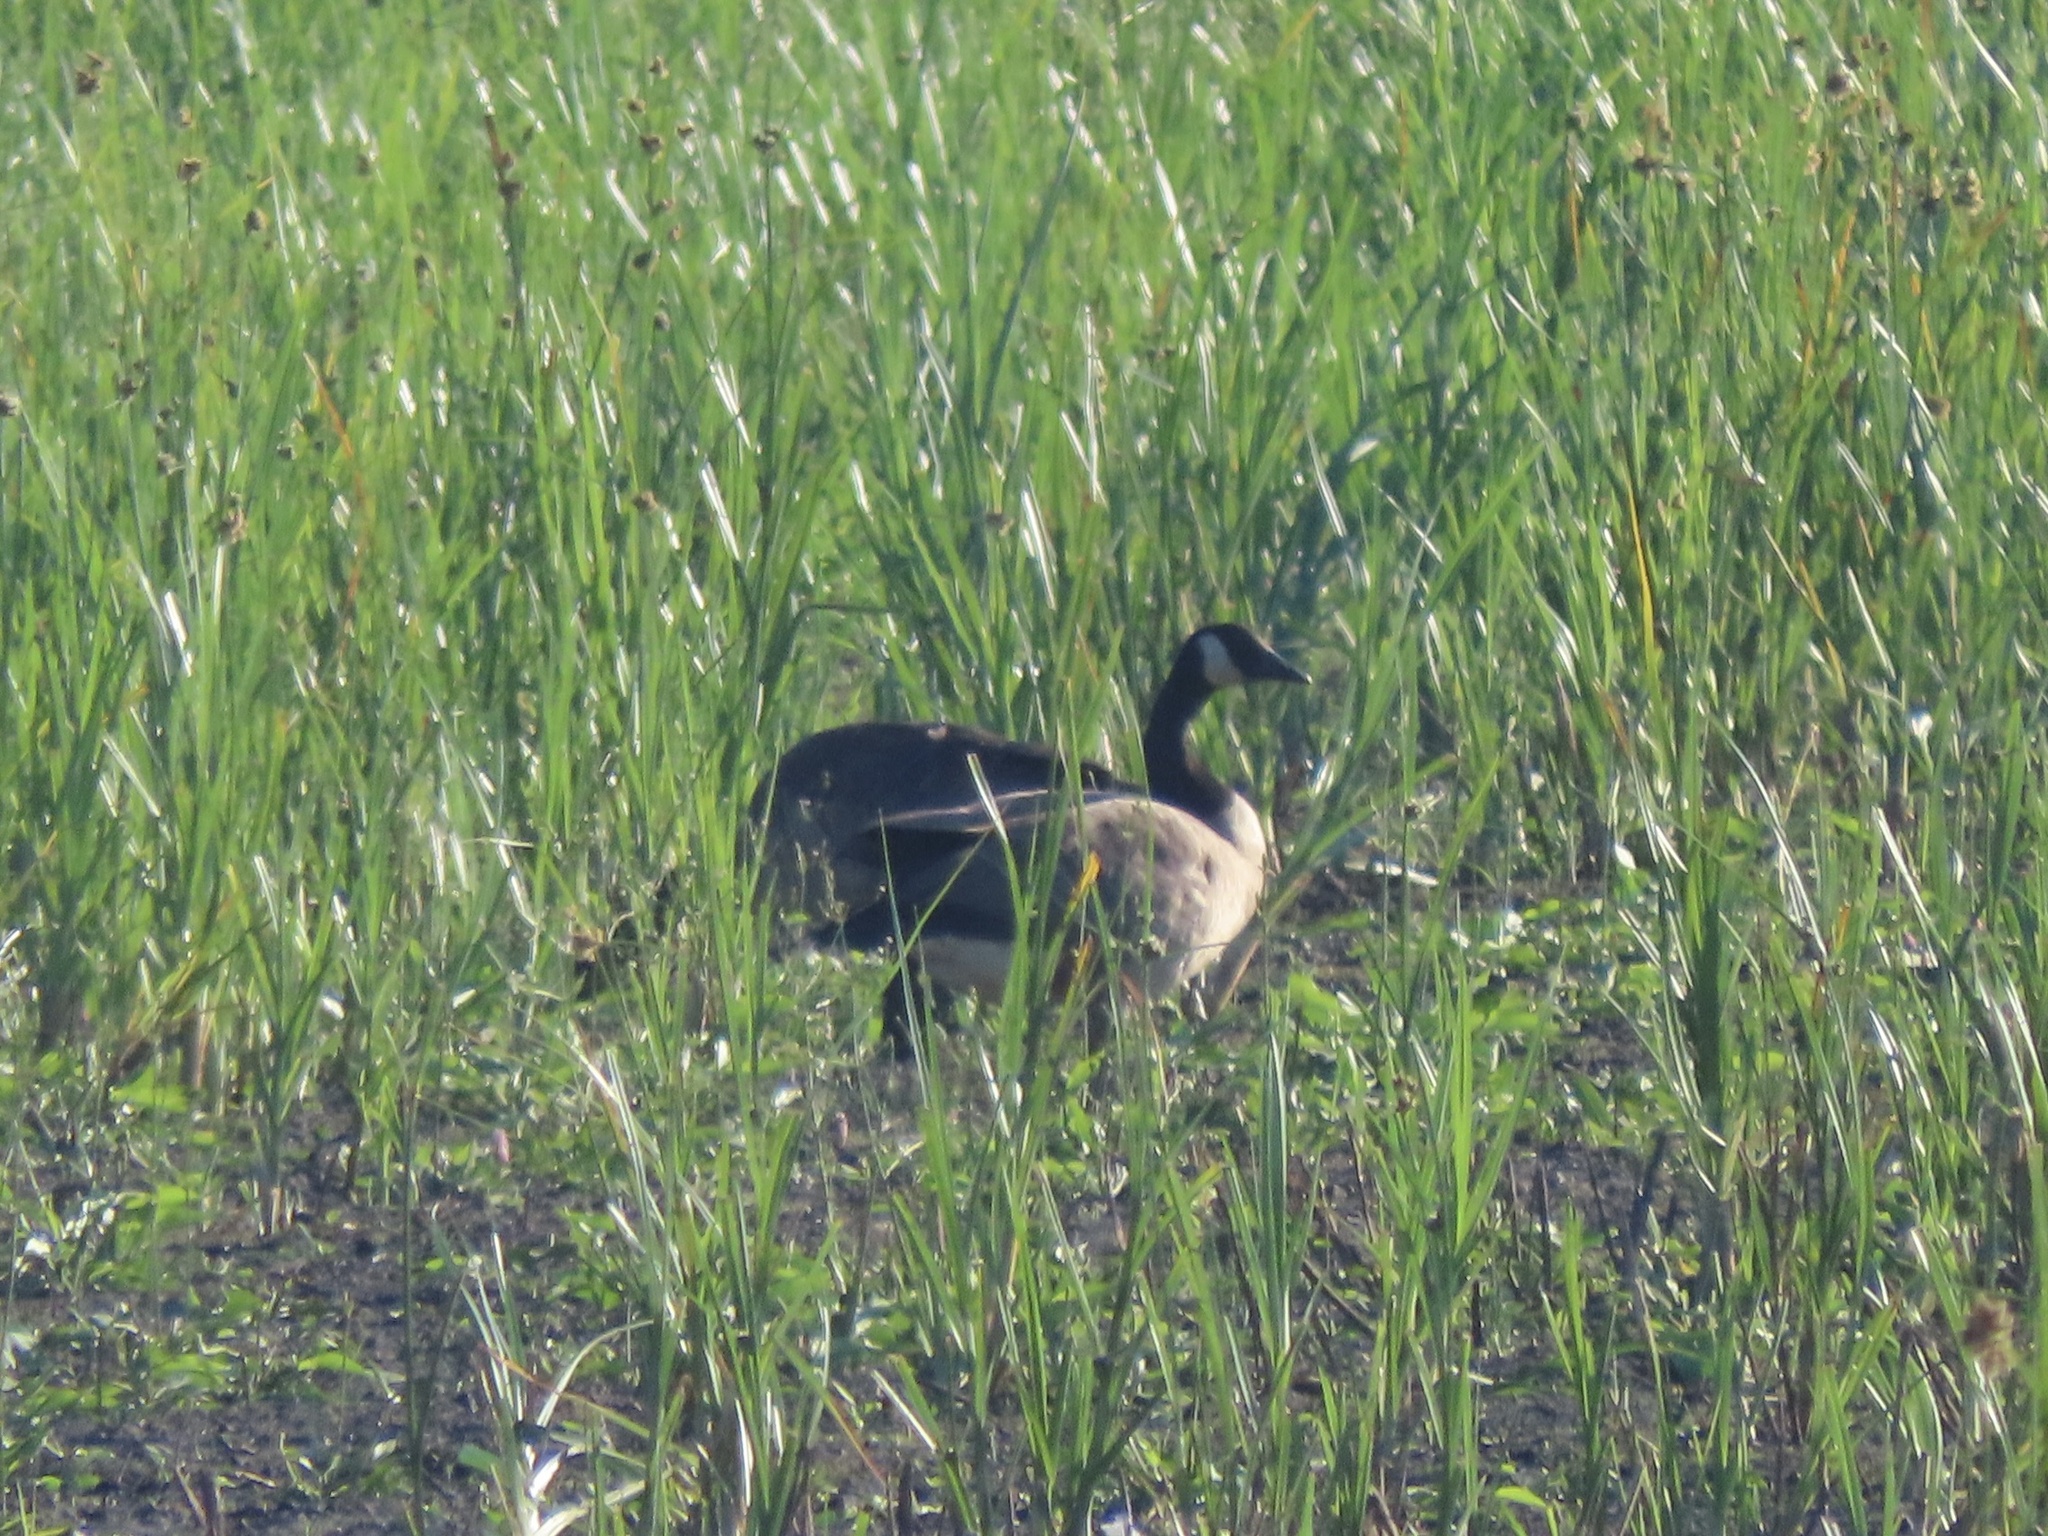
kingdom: Animalia
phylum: Chordata
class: Aves
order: Anseriformes
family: Anatidae
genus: Branta
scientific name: Branta canadensis
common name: Canada goose
